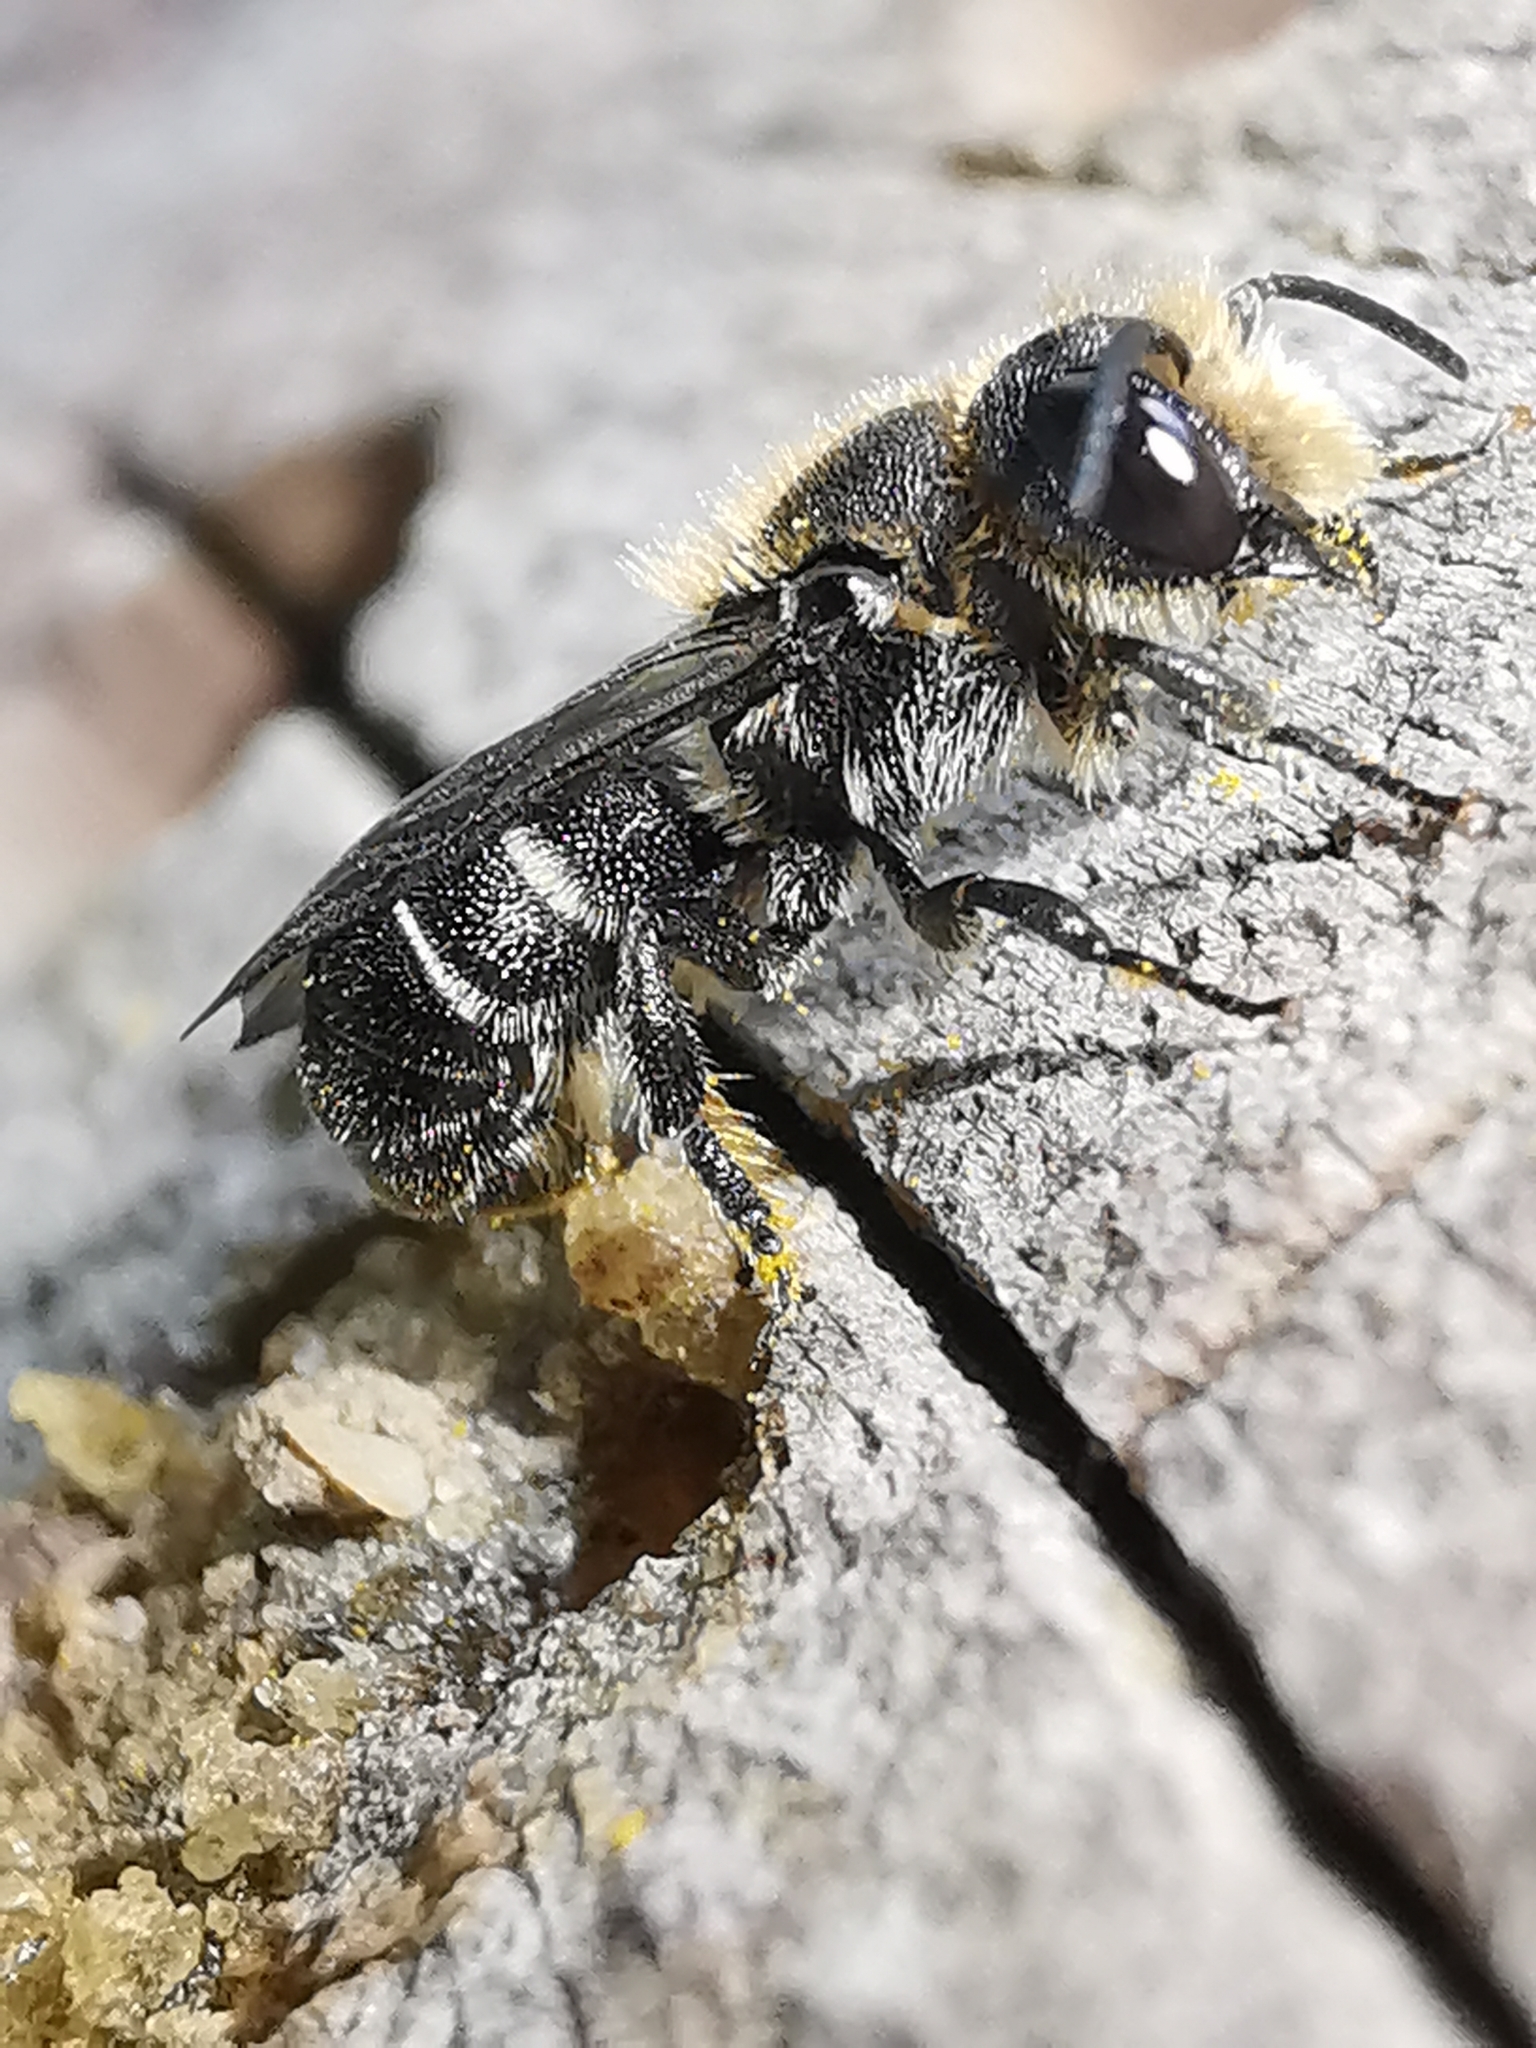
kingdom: Animalia
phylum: Arthropoda
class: Insecta
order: Hymenoptera
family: Megachilidae
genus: Heriades
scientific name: Heriades truncorum
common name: Ridge-saddled carpenter bee
